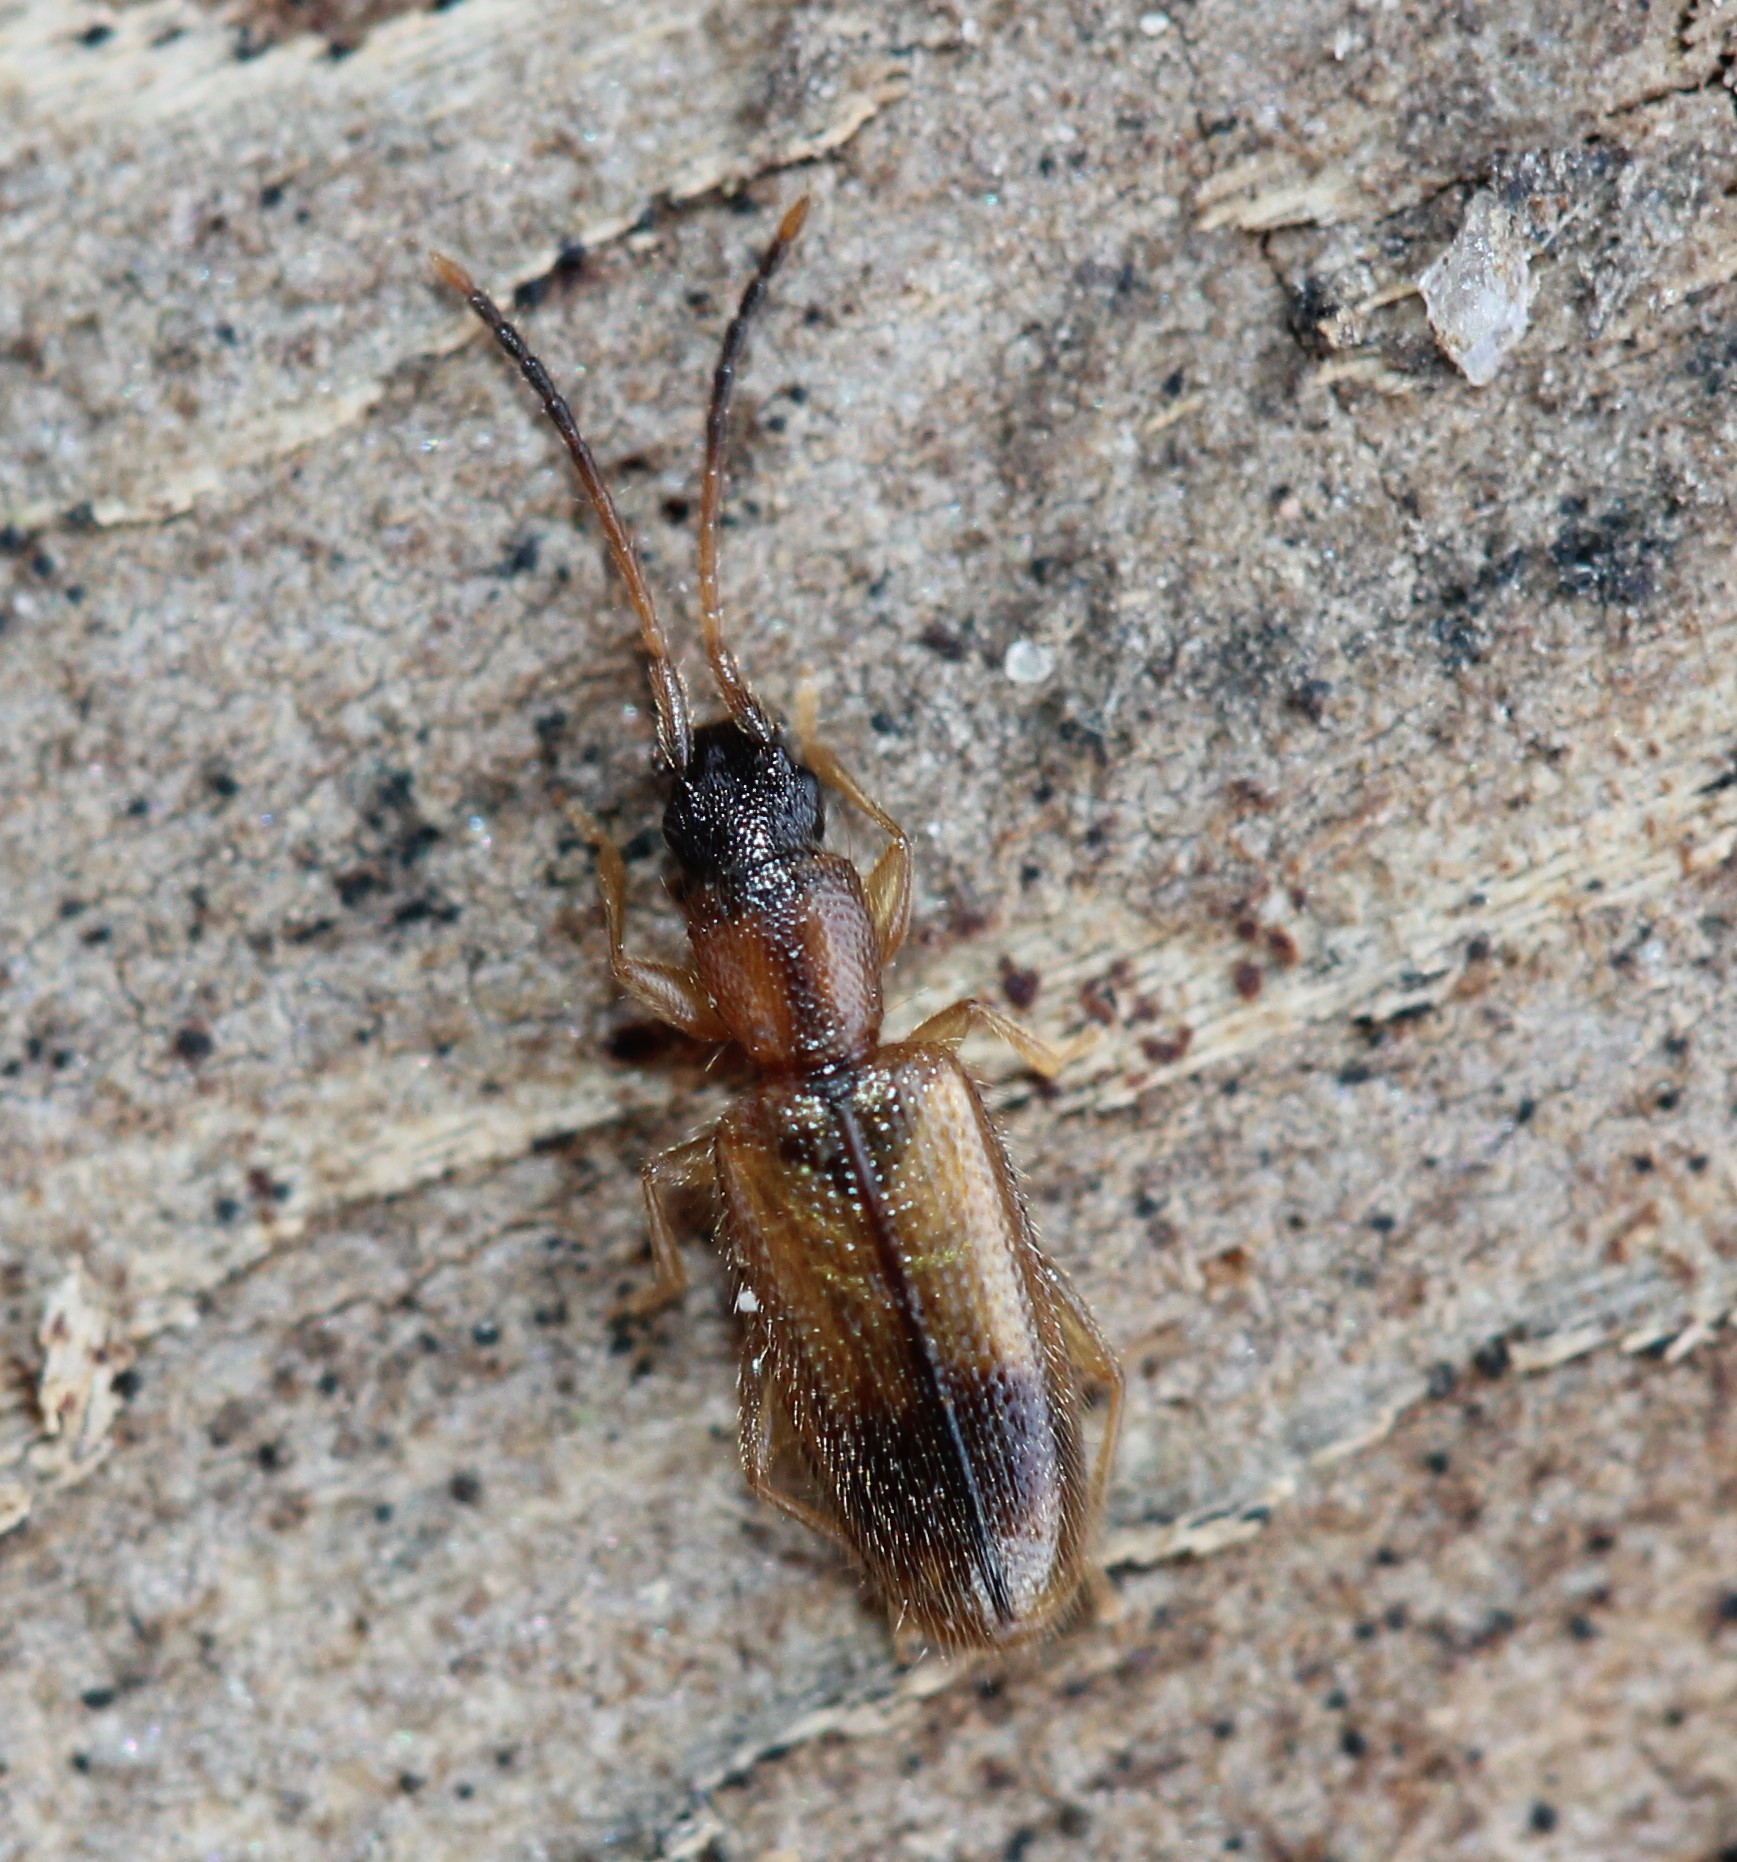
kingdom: Animalia
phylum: Arthropoda
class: Insecta
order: Coleoptera
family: Silvanidae
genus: Telephanus
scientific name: Telephanus velox
